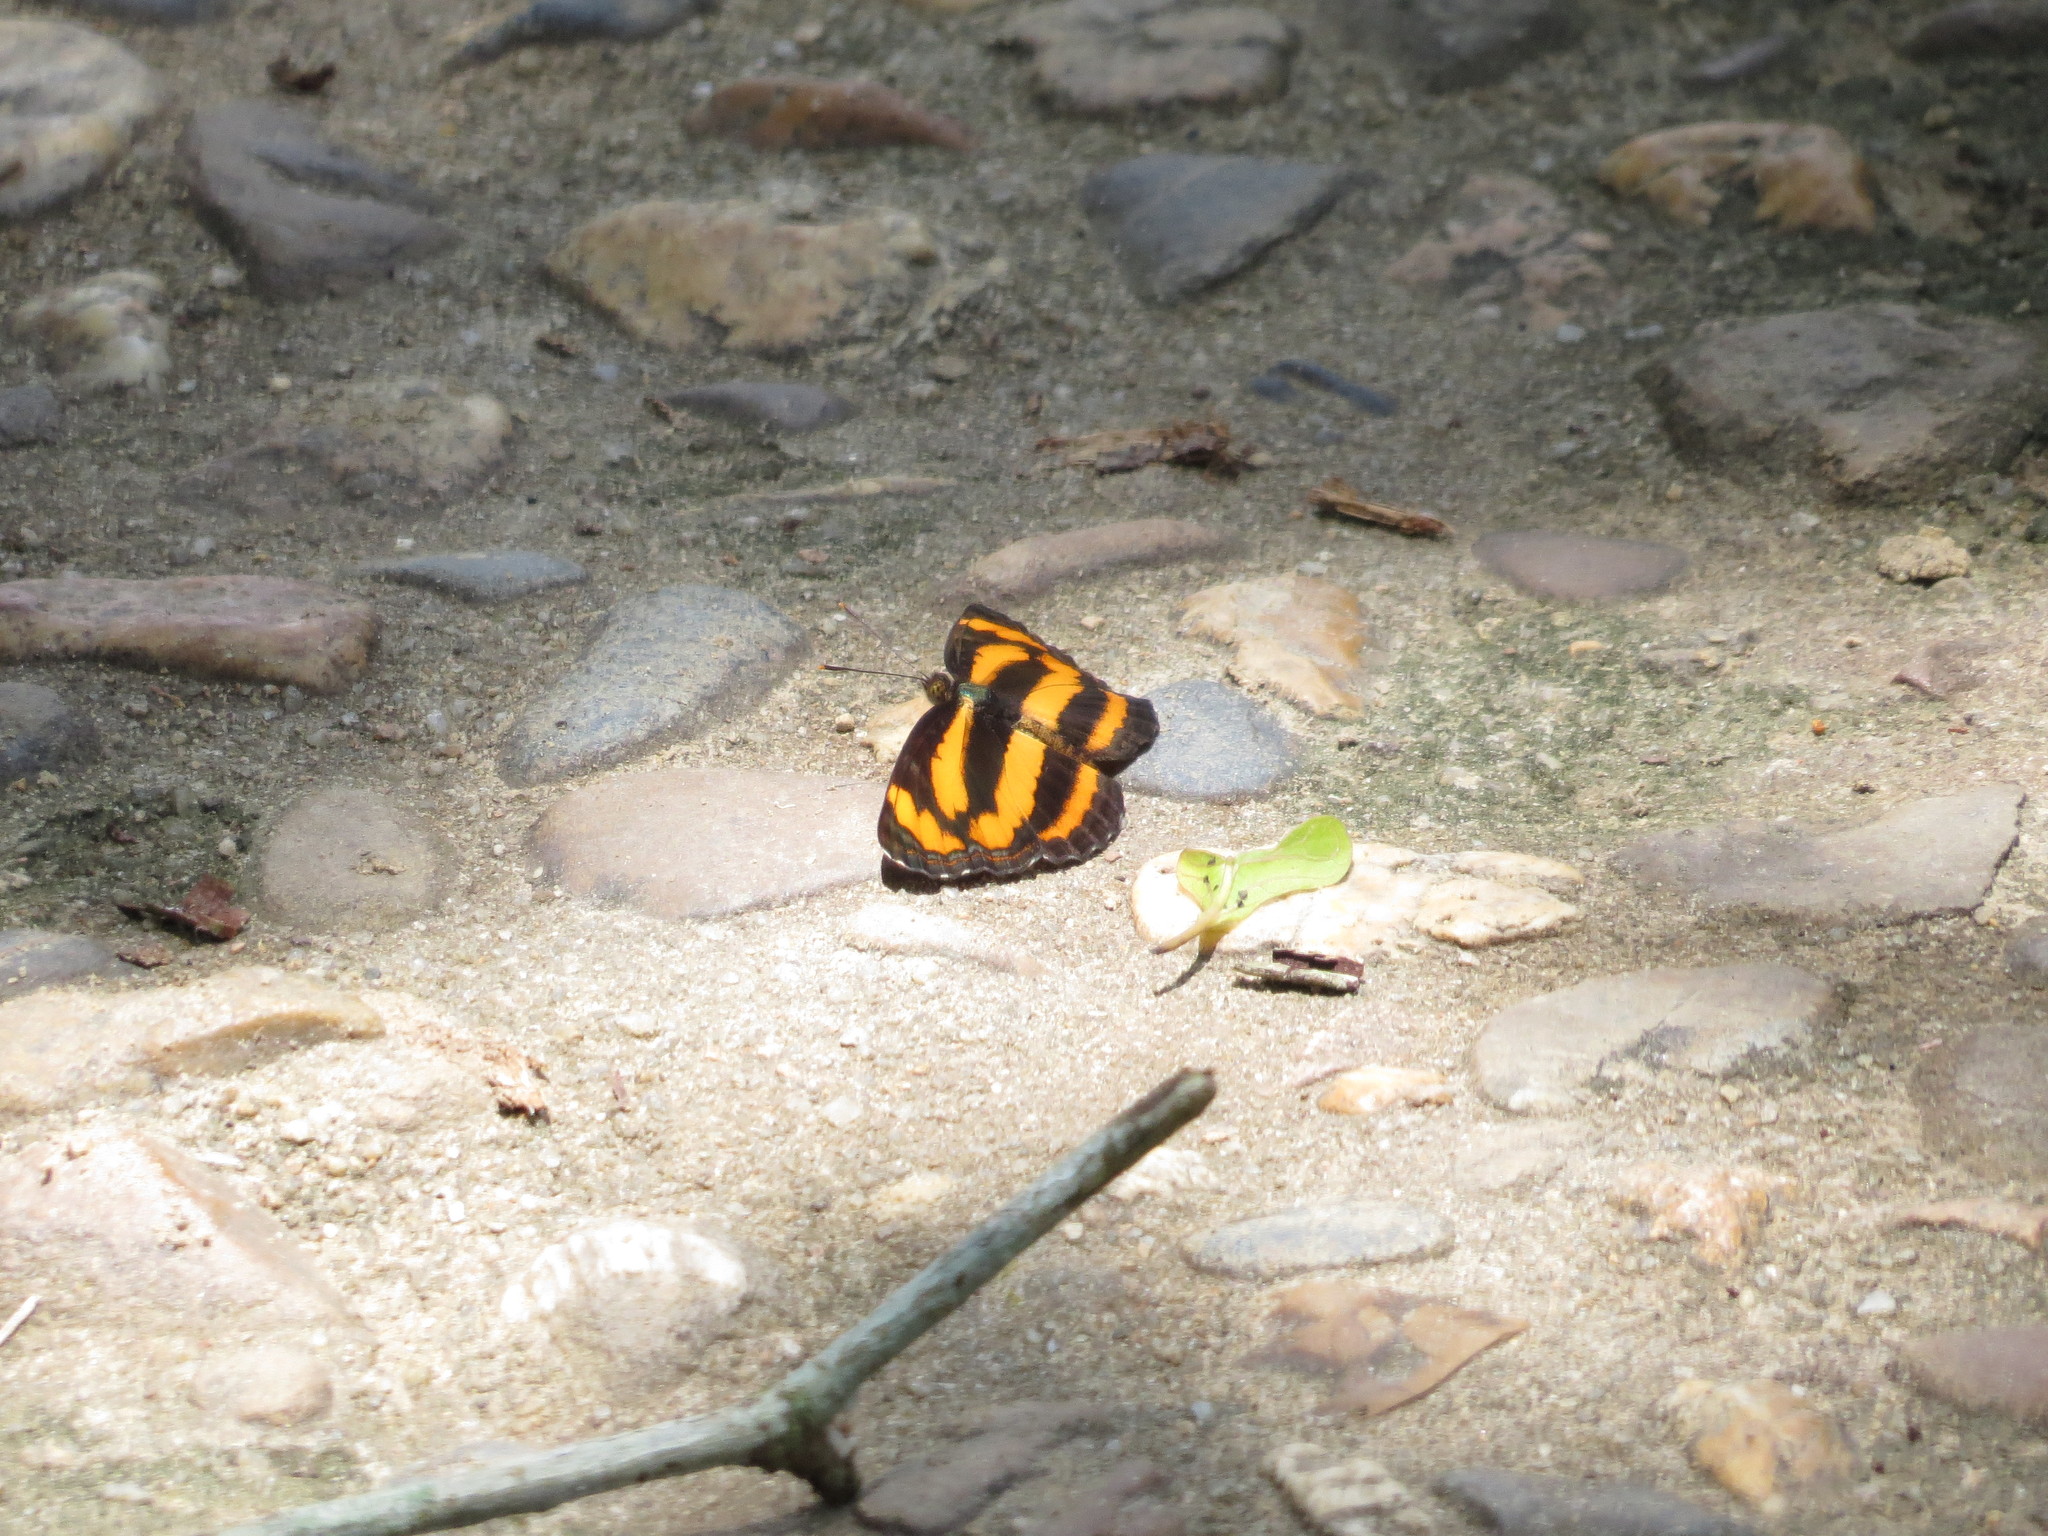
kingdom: Animalia
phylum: Arthropoda
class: Insecta
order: Lepidoptera
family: Nymphalidae
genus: Pantoporia
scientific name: Pantoporia hordonia
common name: Common lascar
